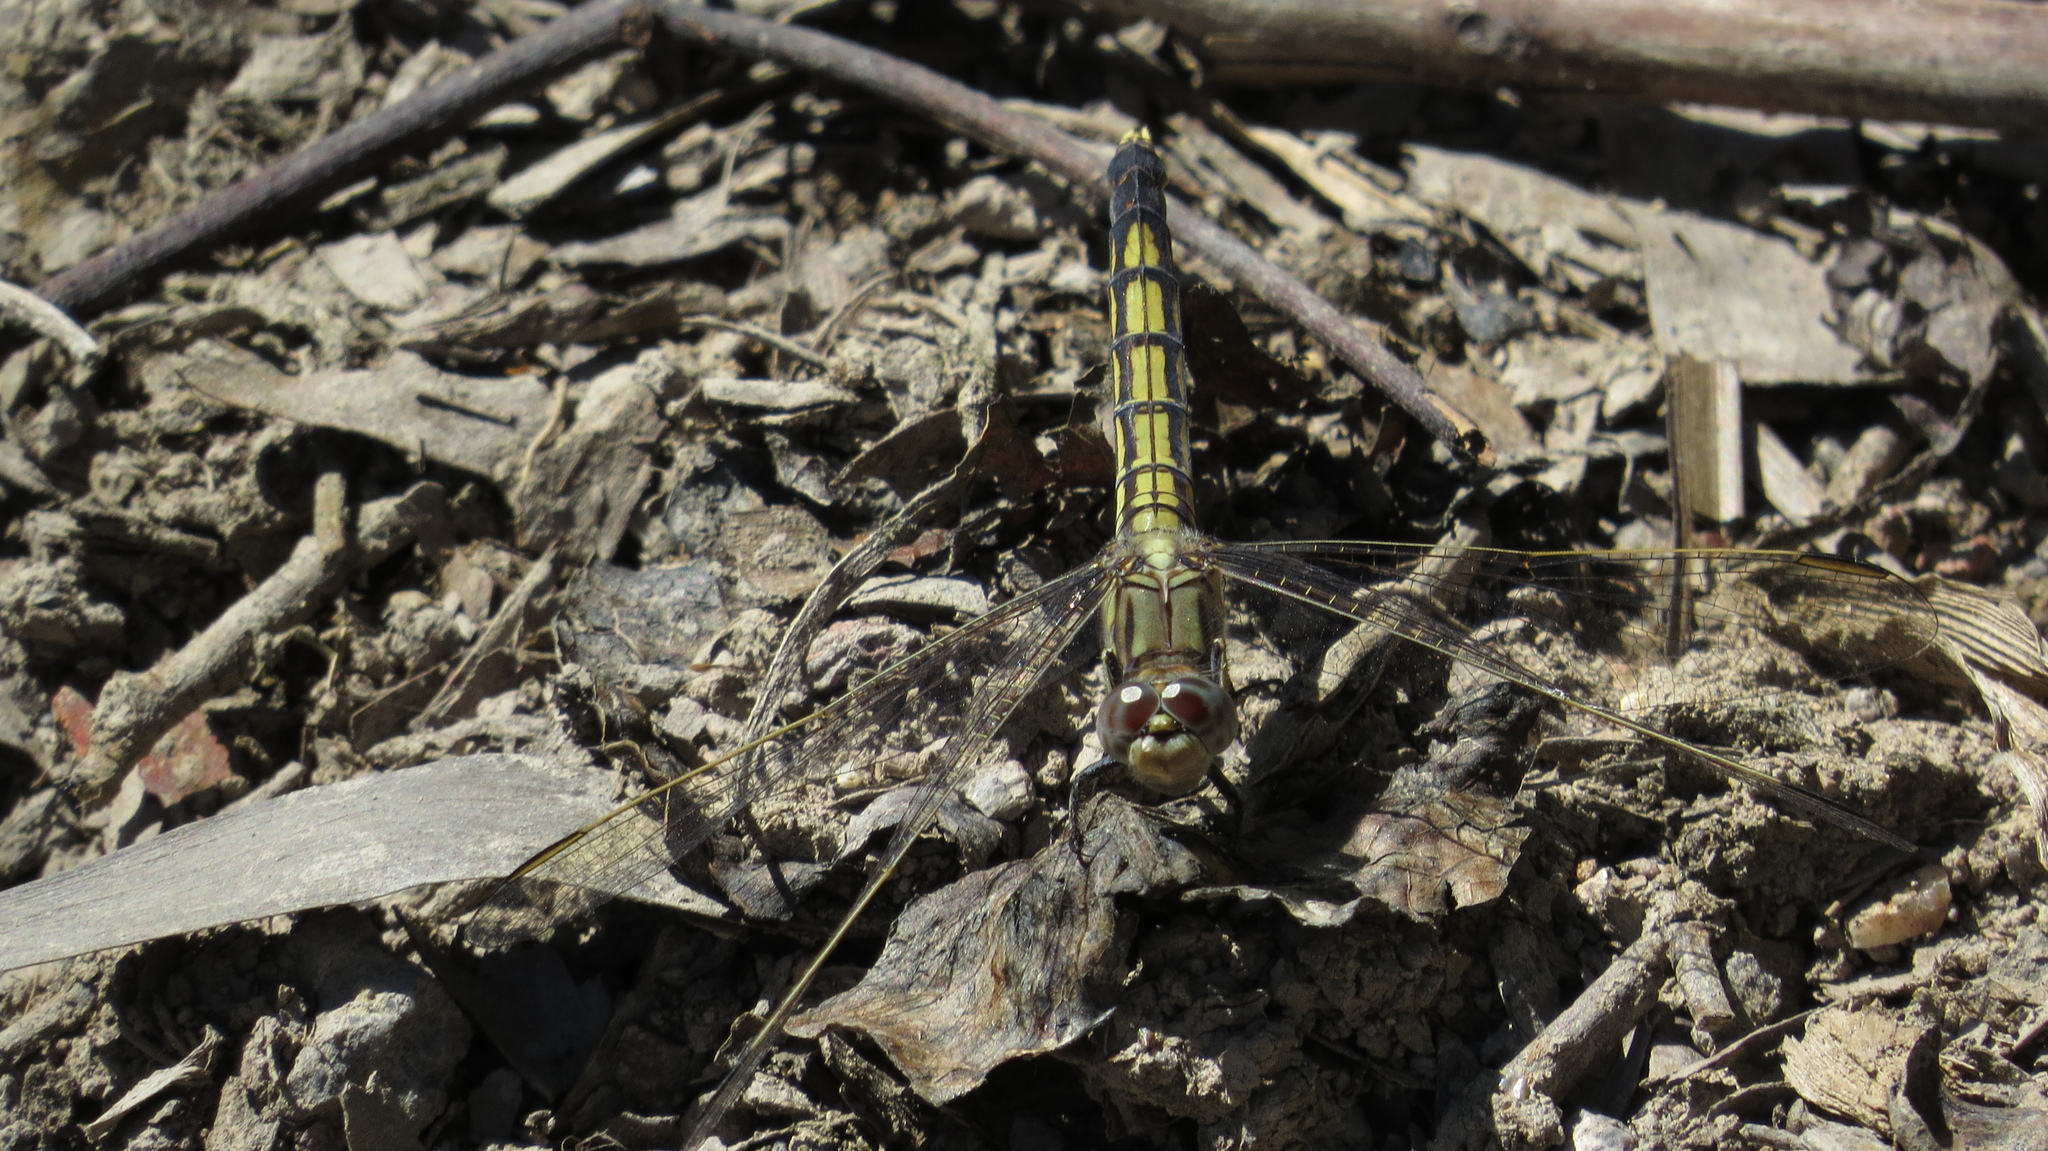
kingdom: Animalia
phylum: Arthropoda
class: Insecta
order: Odonata
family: Libellulidae
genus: Orthetrum
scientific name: Orthetrum caledonicum
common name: Blue skimmer
